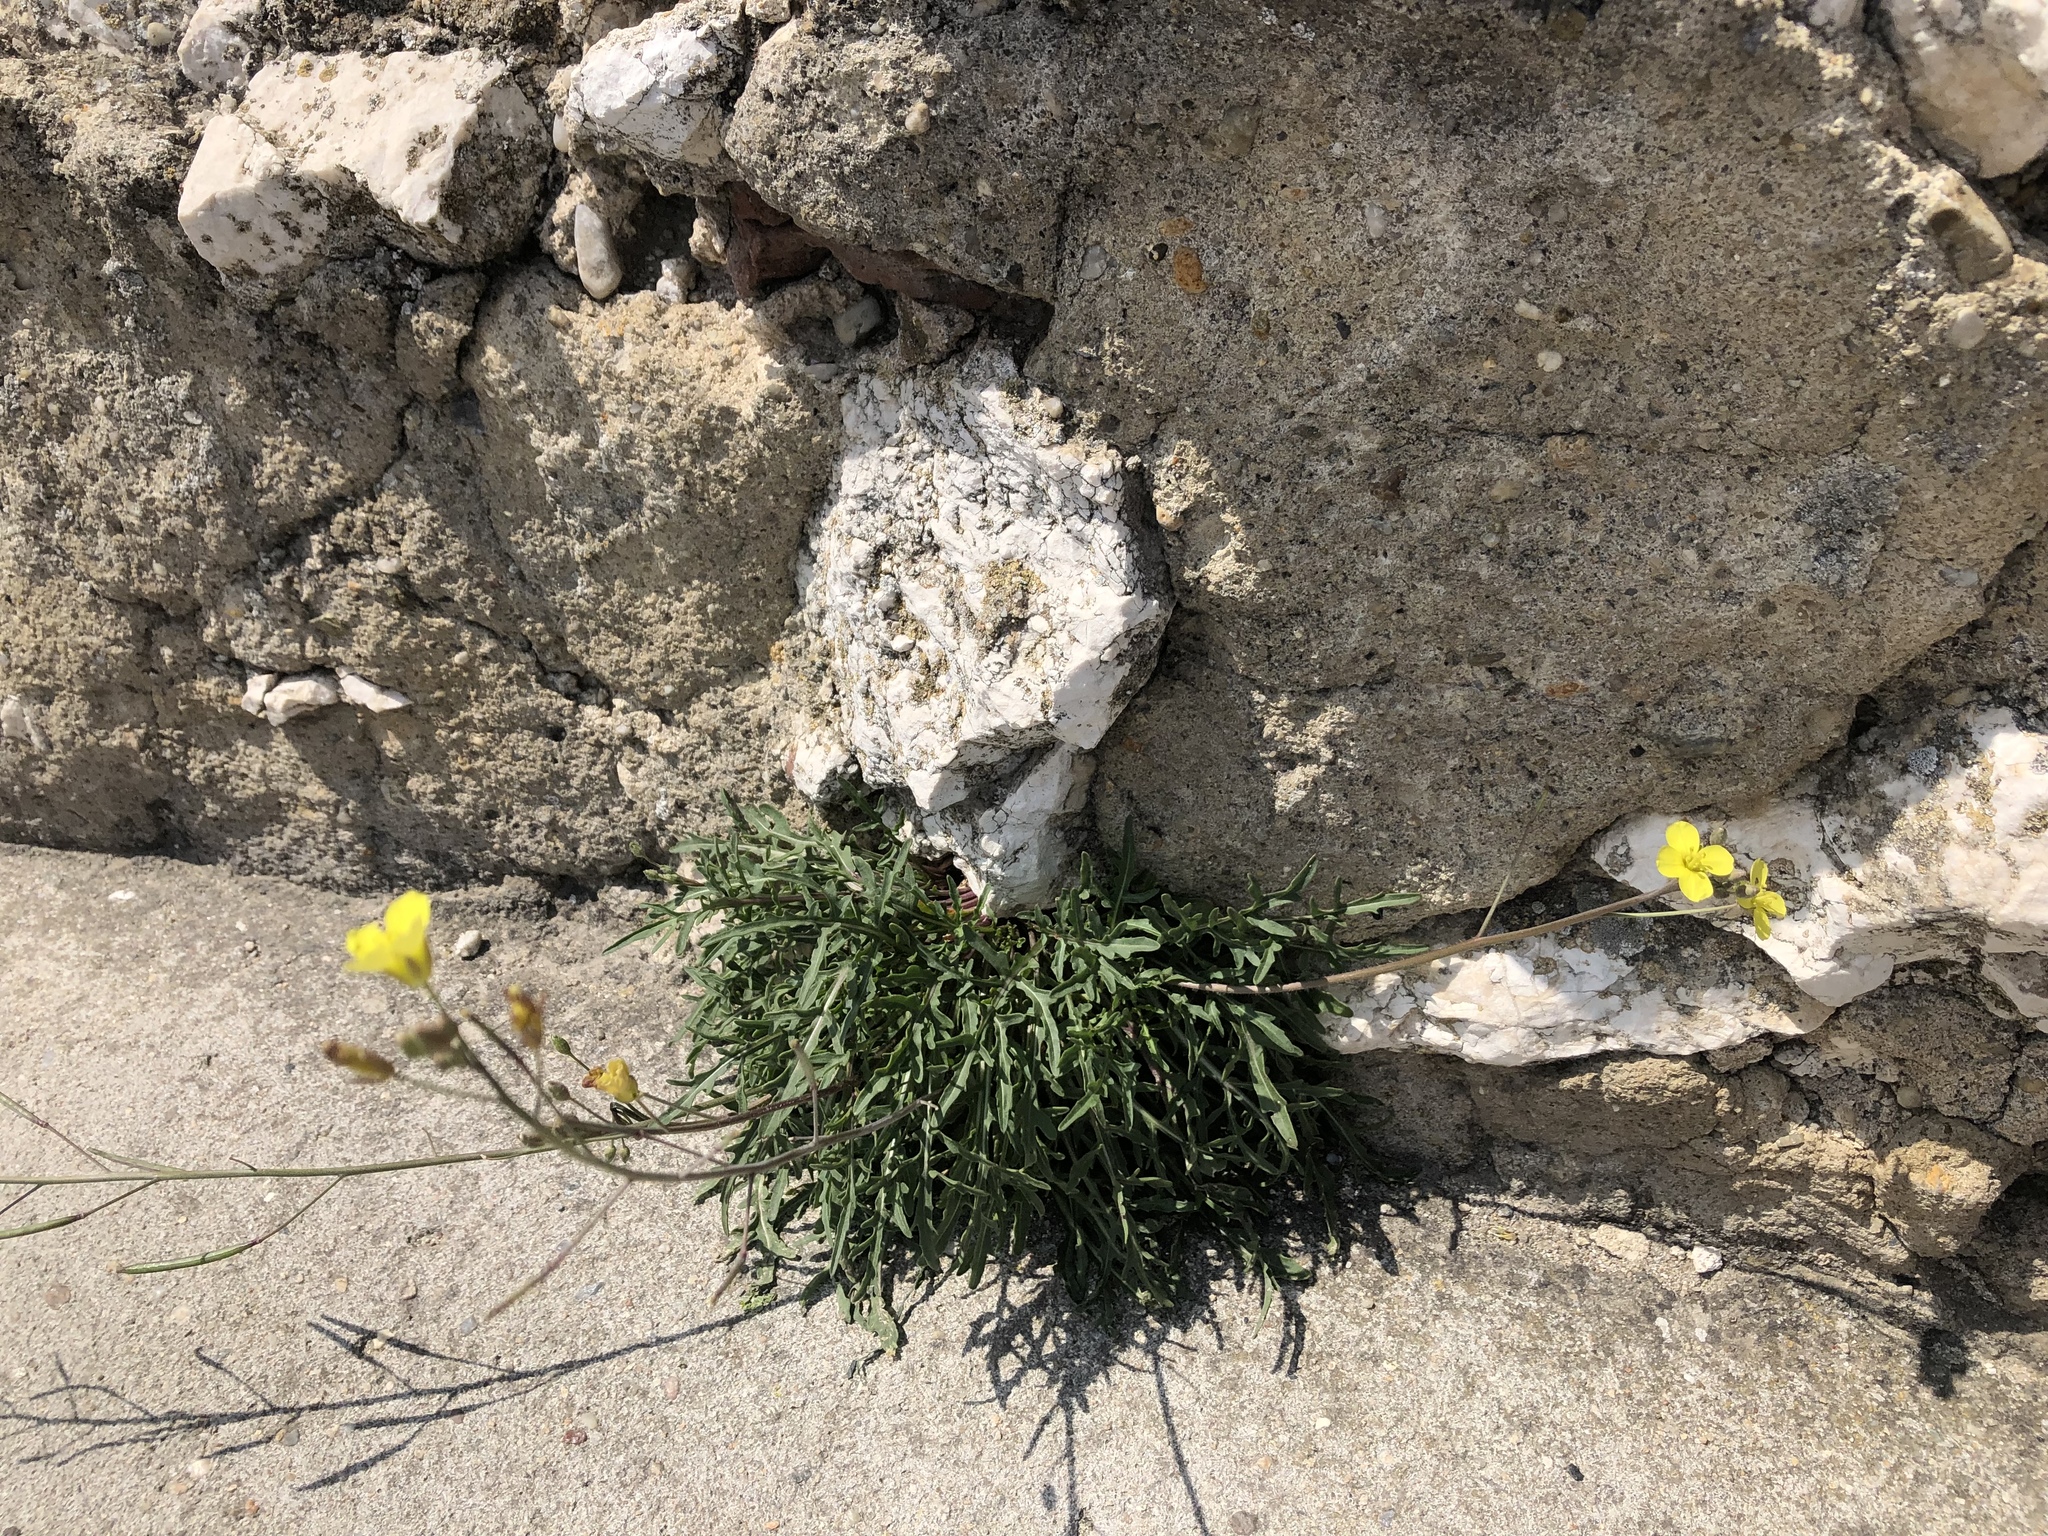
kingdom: Plantae
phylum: Tracheophyta
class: Magnoliopsida
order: Brassicales
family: Brassicaceae
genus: Diplotaxis
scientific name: Diplotaxis muralis
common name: Annual wall-rocket
